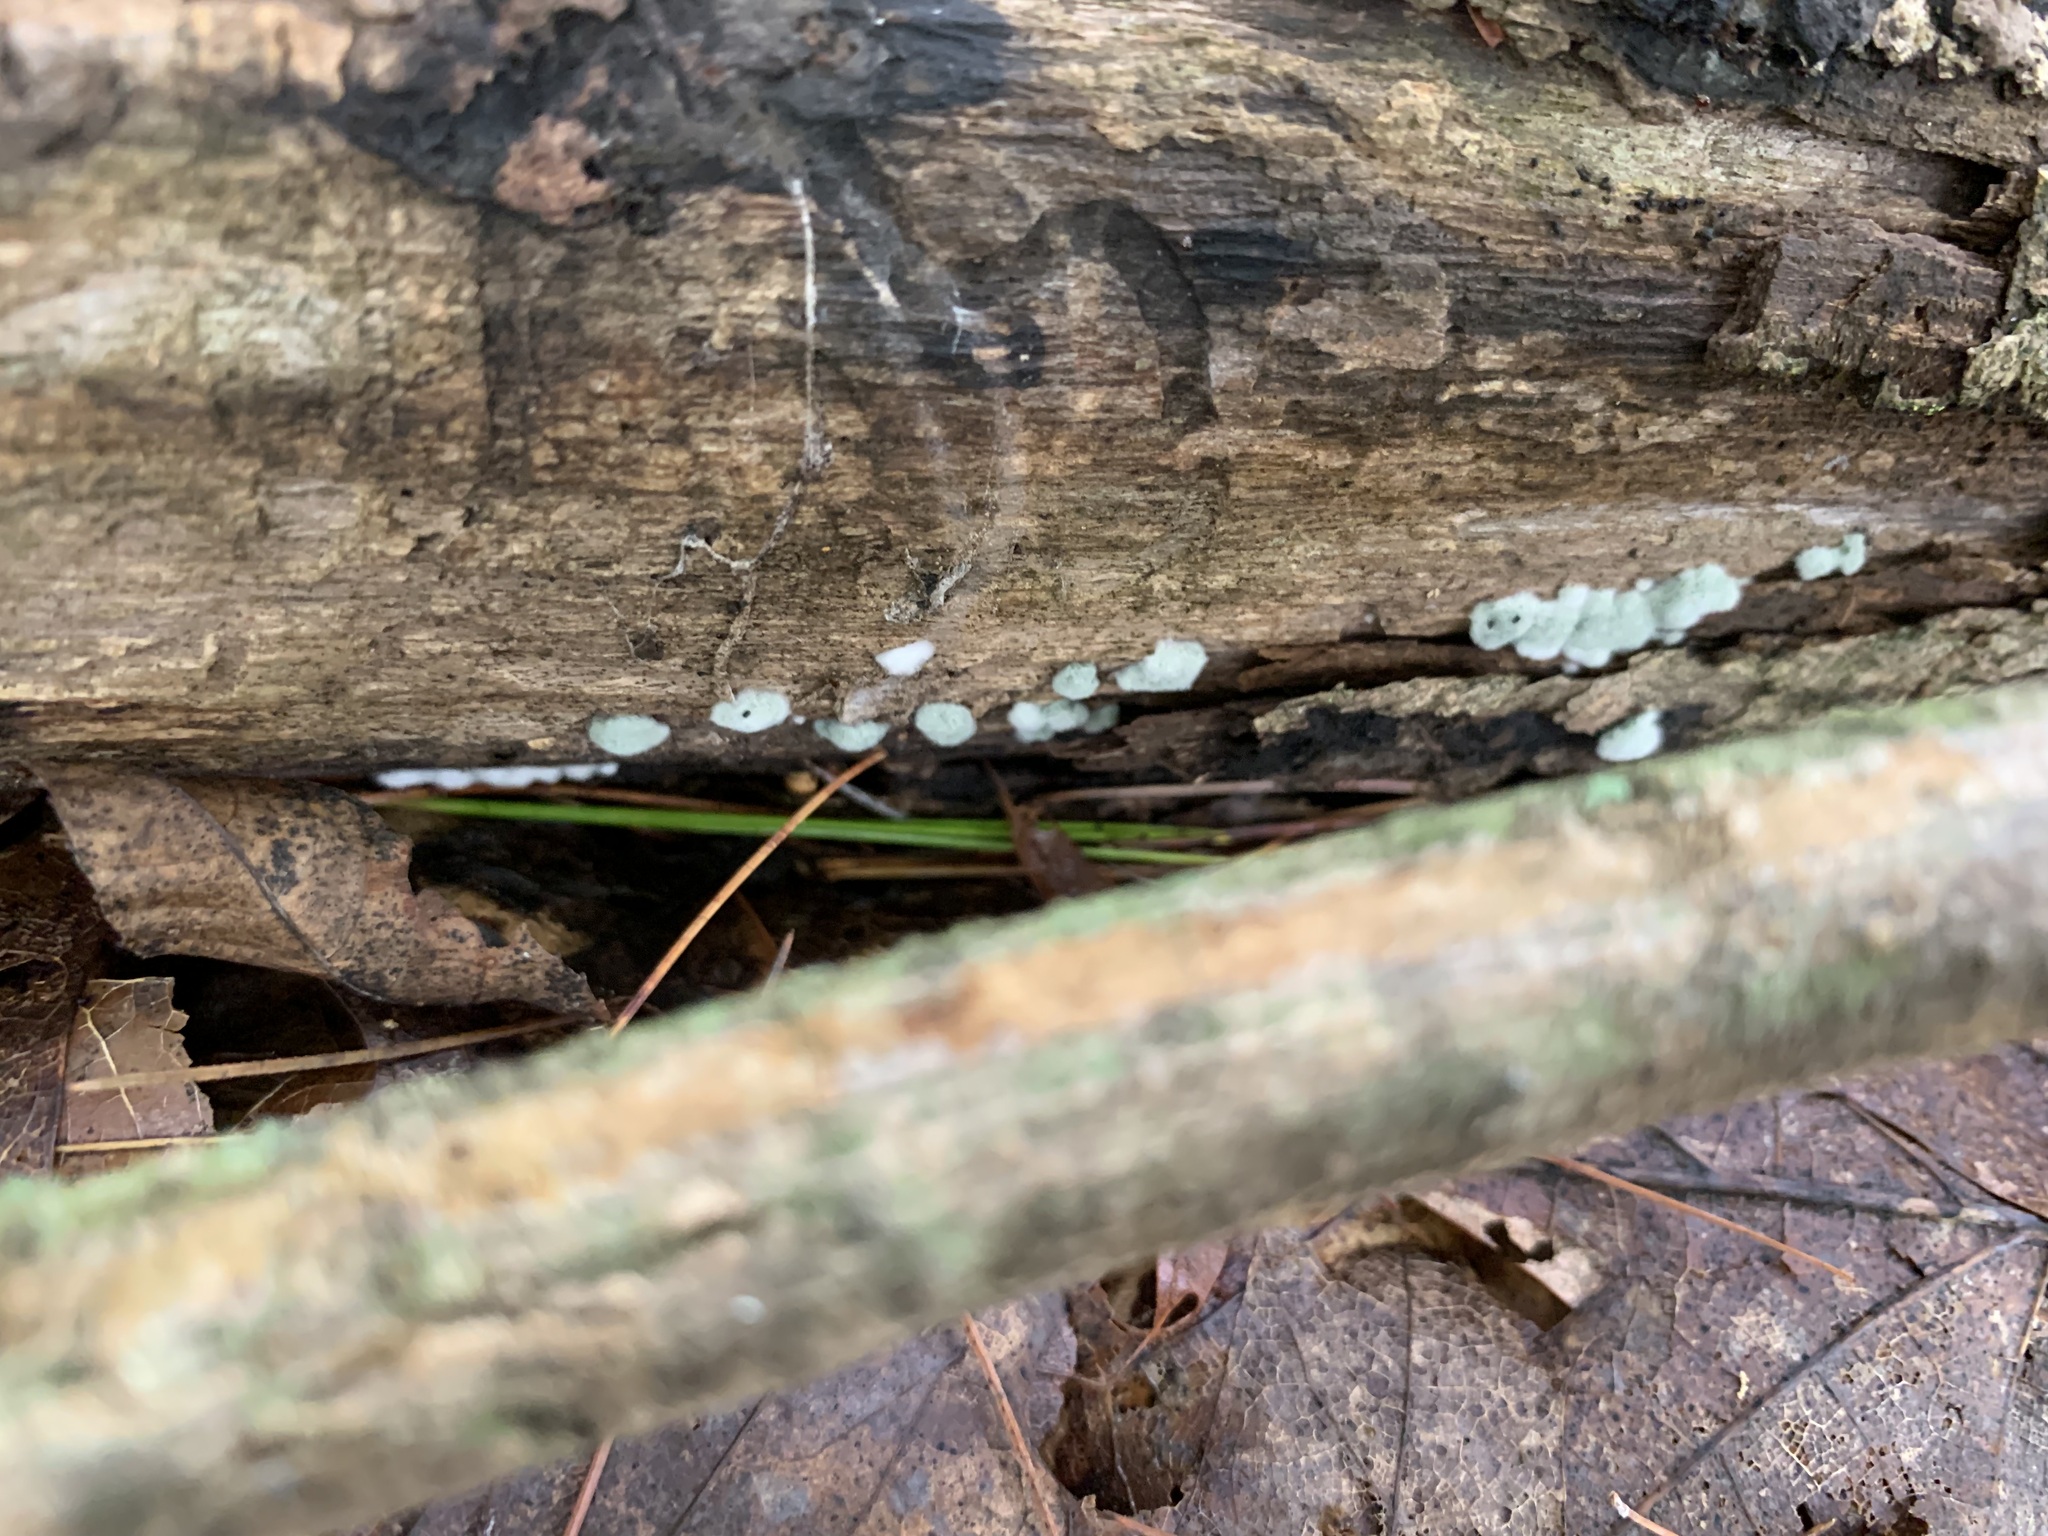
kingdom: Fungi
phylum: Ascomycota
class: Sordariomycetes
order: Hypocreales
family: Hypocreaceae
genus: Trichoderma
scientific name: Trichoderma viride
